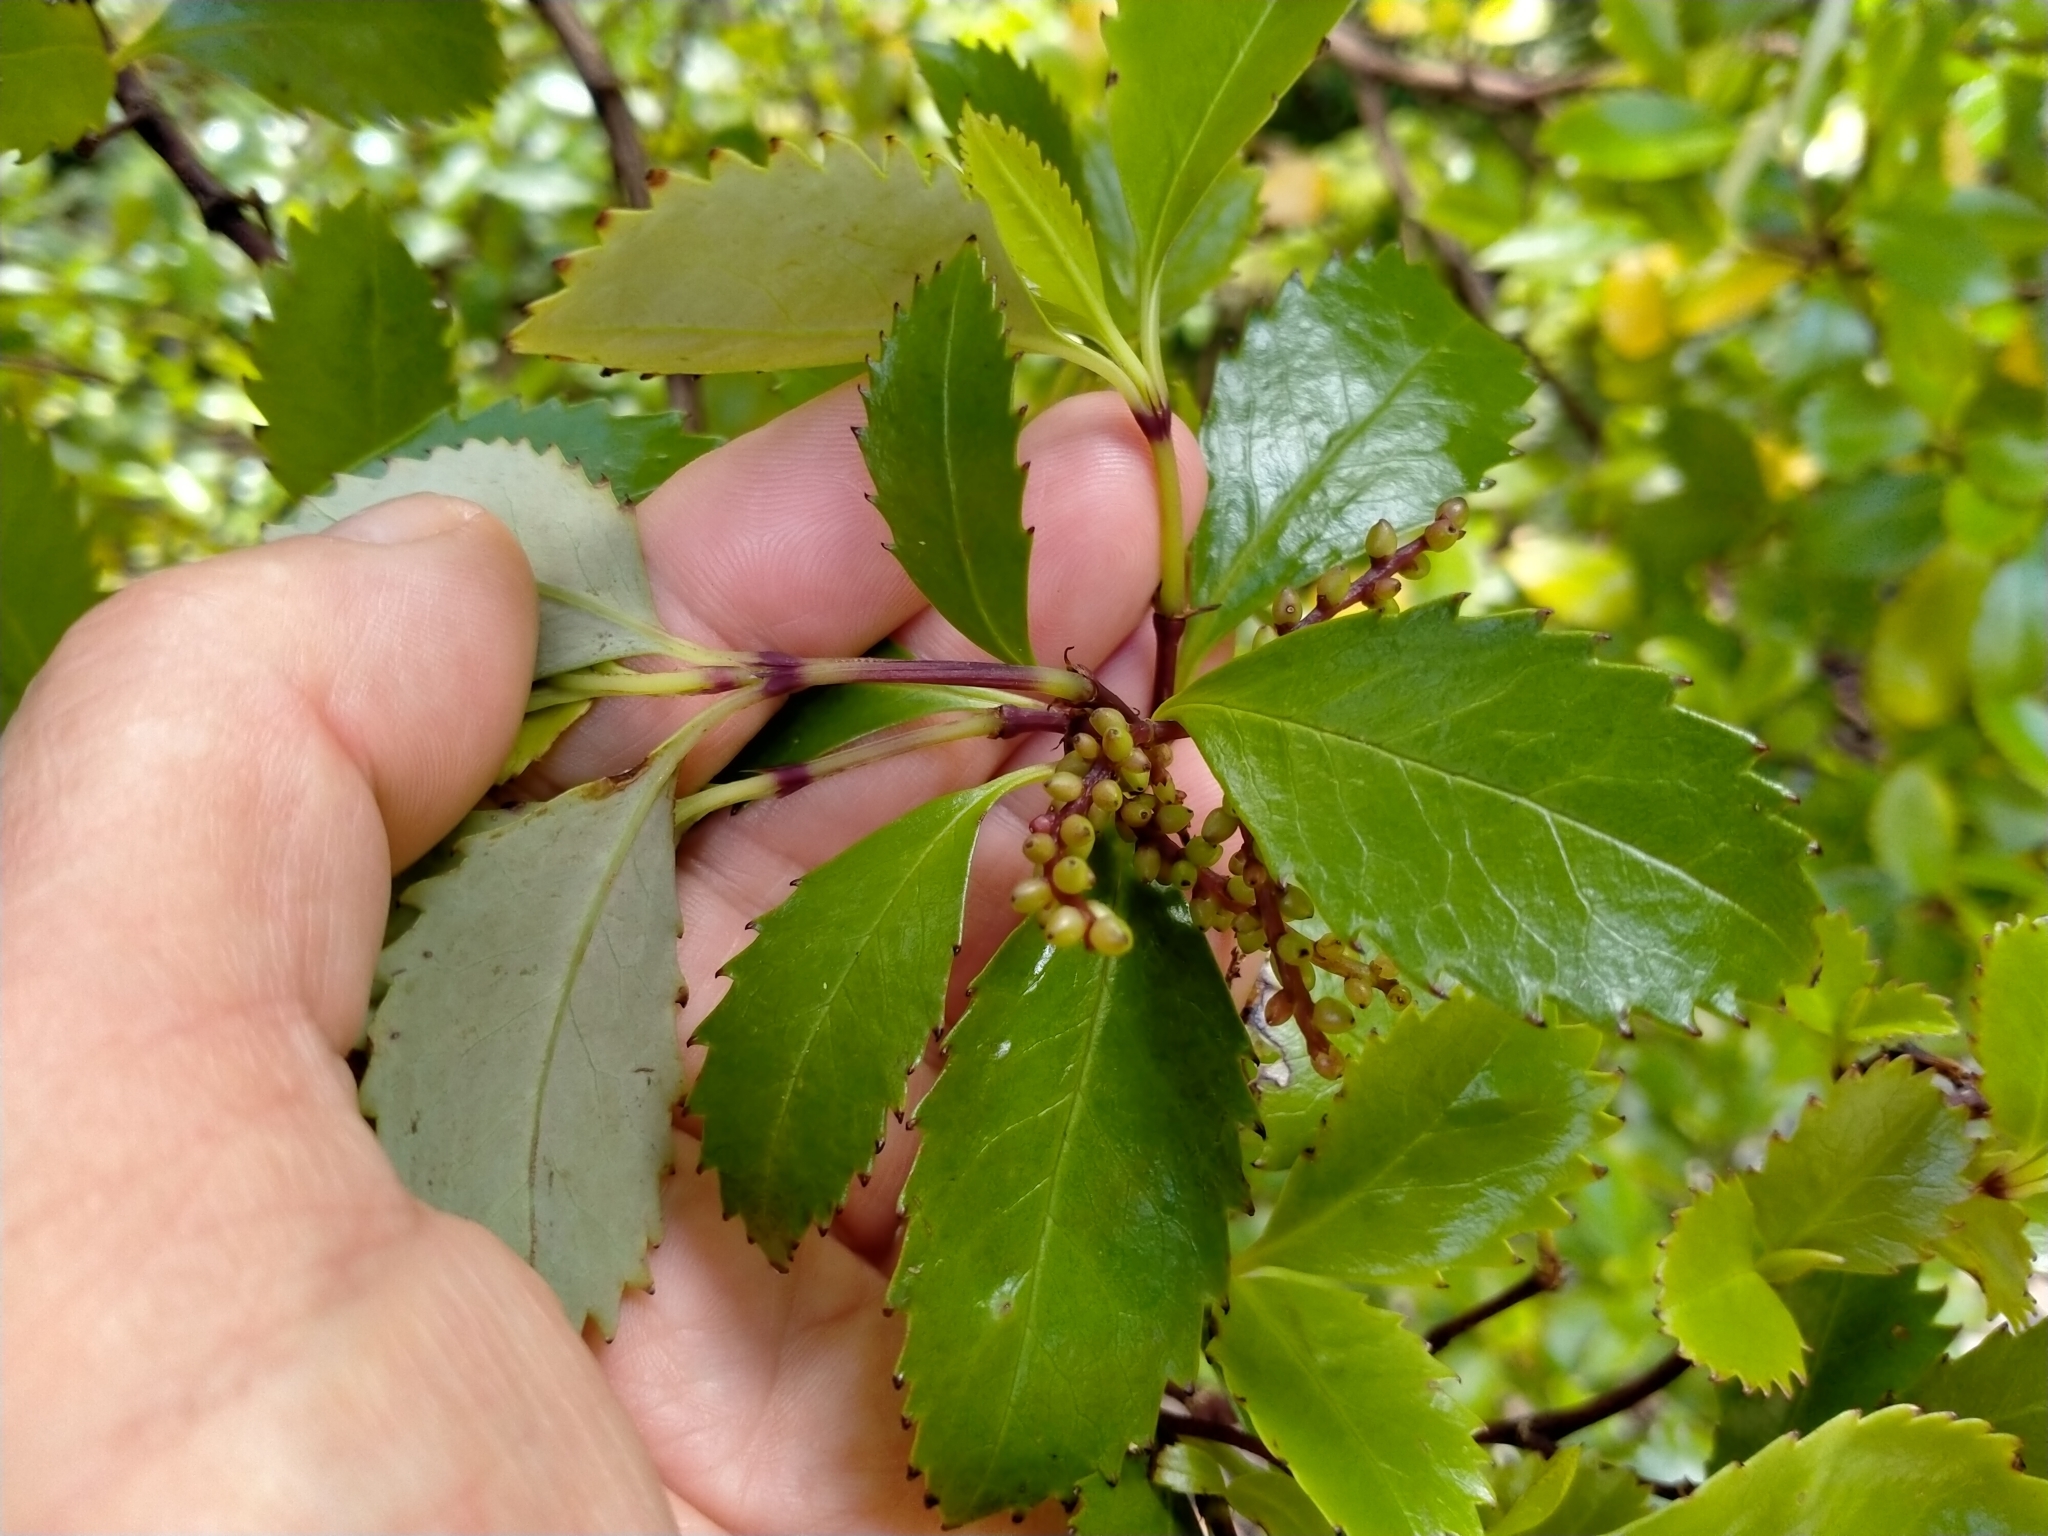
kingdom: Plantae
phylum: Tracheophyta
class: Magnoliopsida
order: Chloranthales
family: Chloranthaceae
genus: Ascarina
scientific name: Ascarina lucida
